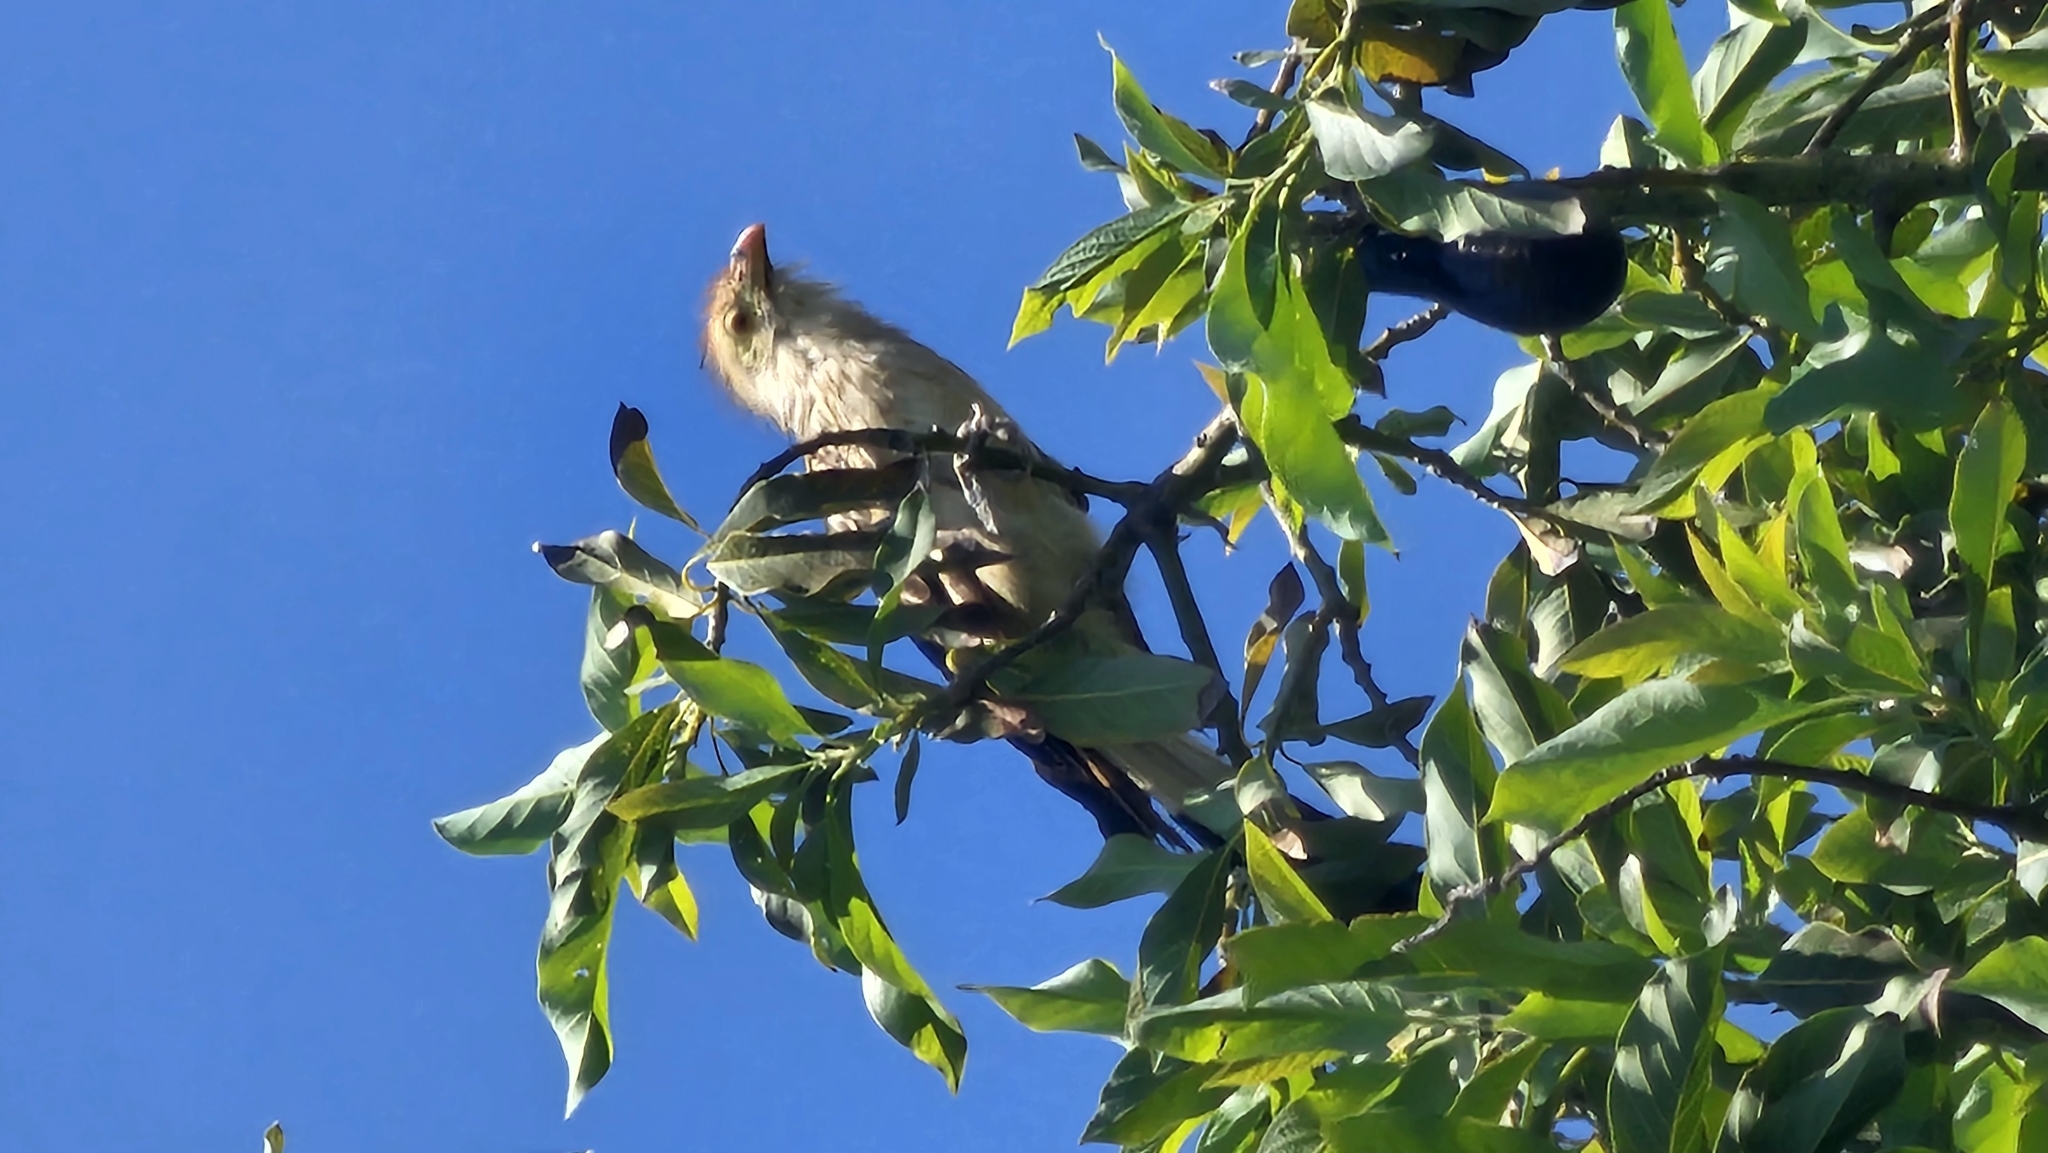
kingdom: Animalia
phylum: Chordata
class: Aves
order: Cuculiformes
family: Cuculidae
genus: Guira
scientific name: Guira guira
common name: Guira cuckoo
